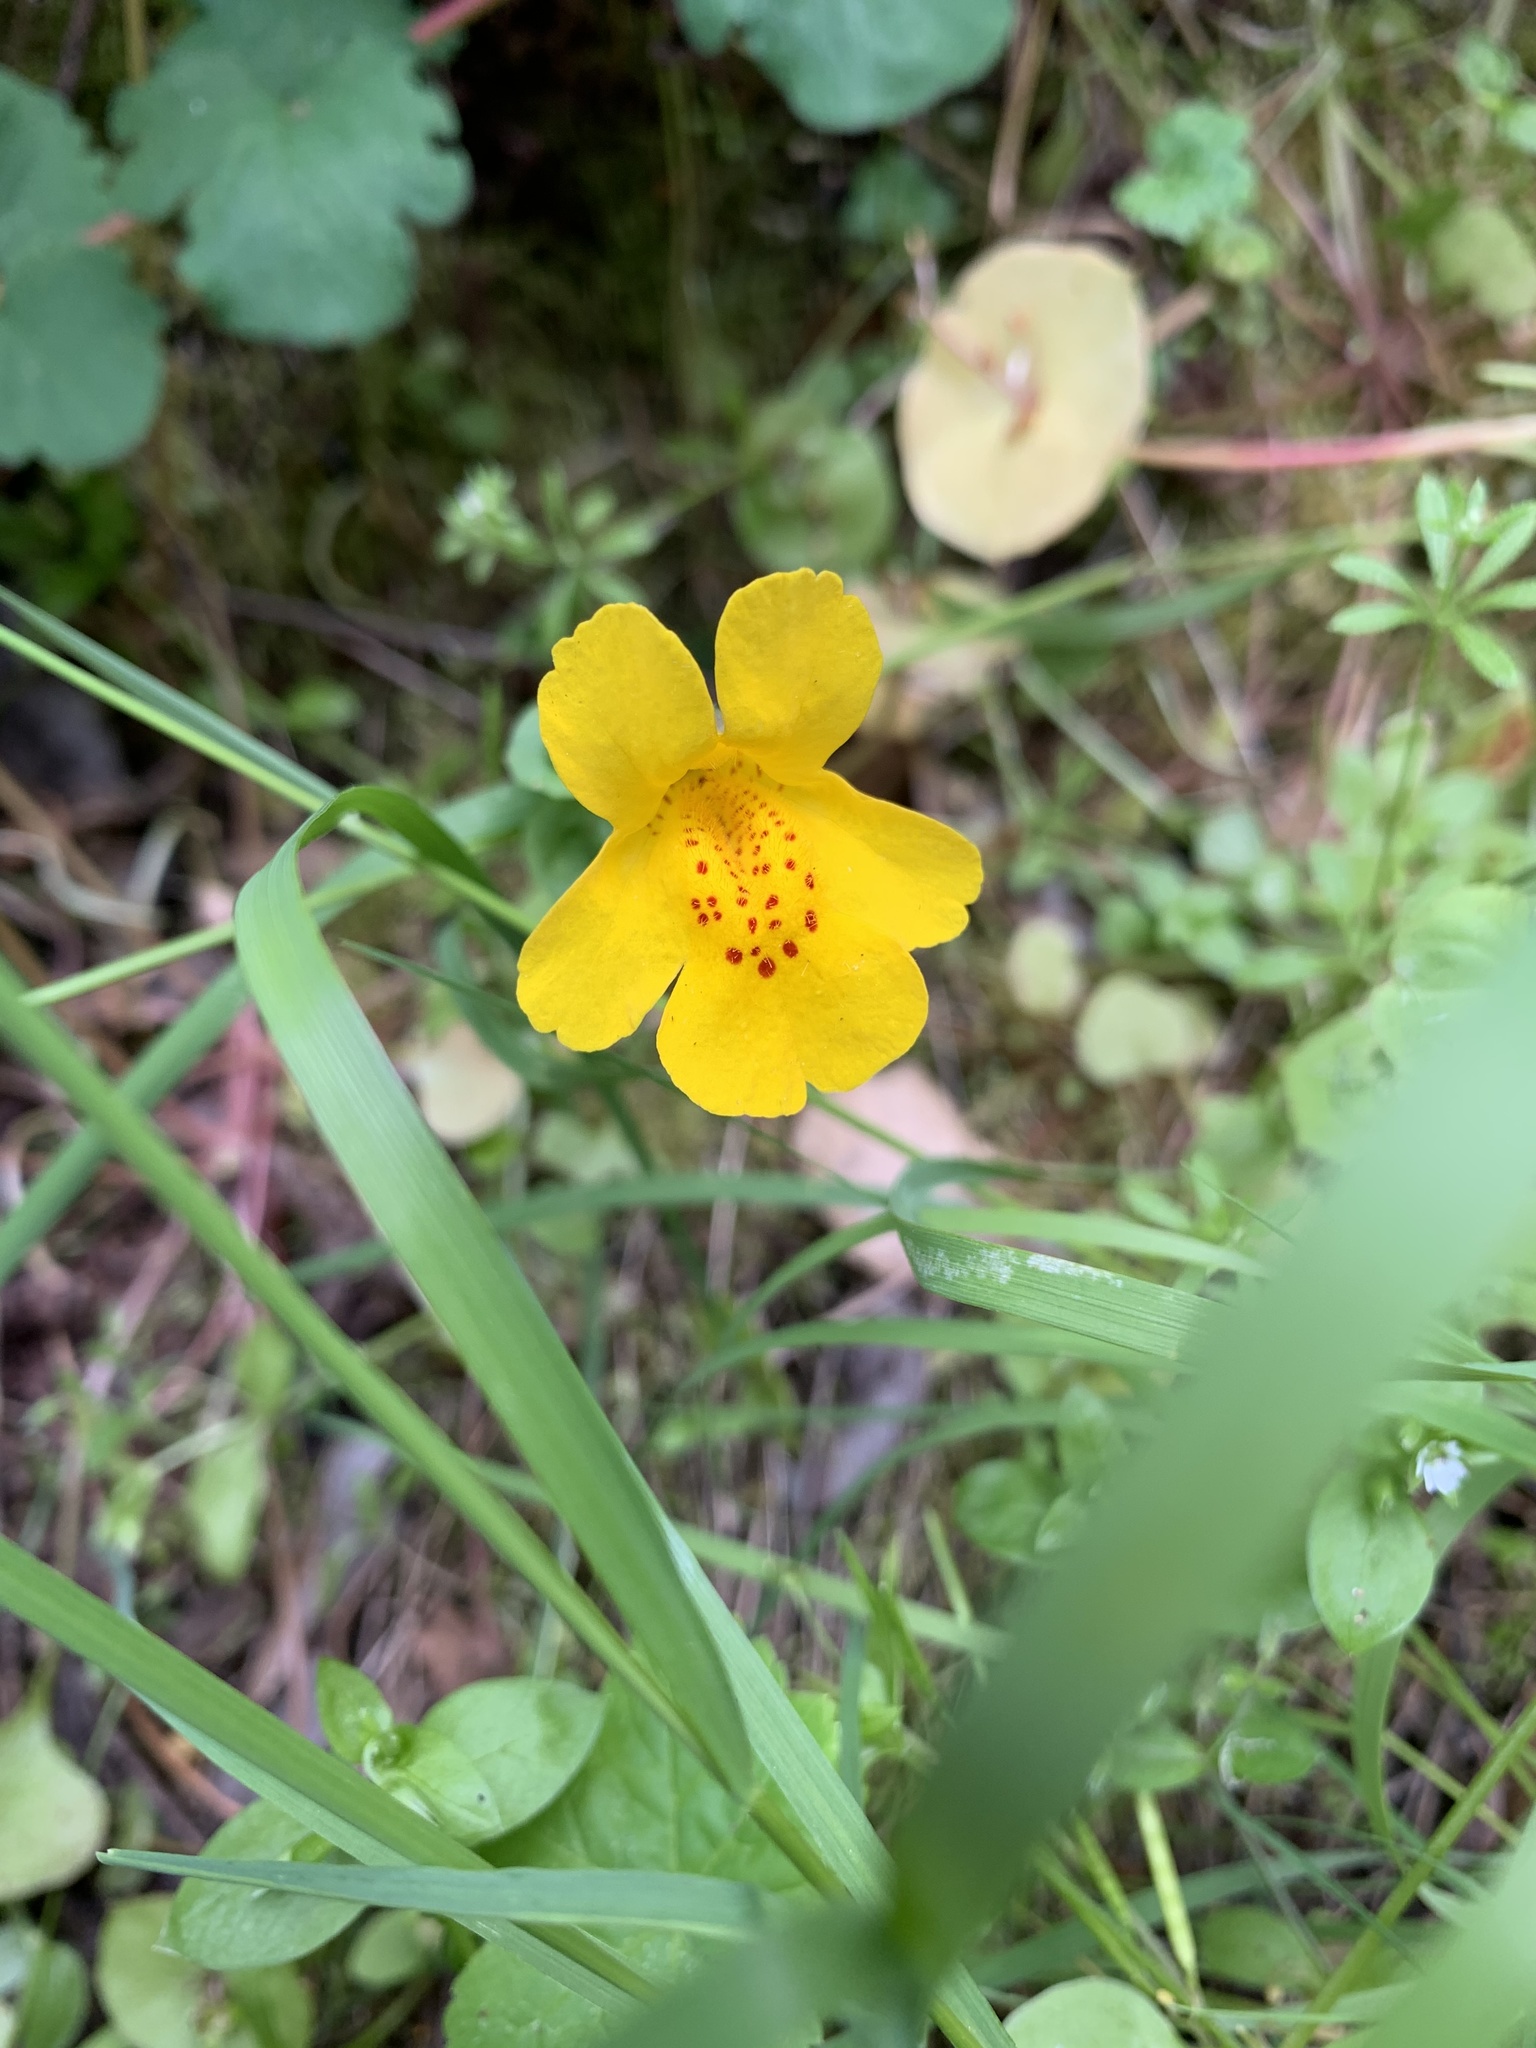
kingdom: Plantae
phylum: Tracheophyta
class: Magnoliopsida
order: Lamiales
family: Phrymaceae
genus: Erythranthe
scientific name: Erythranthe guttata
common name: Monkeyflower
